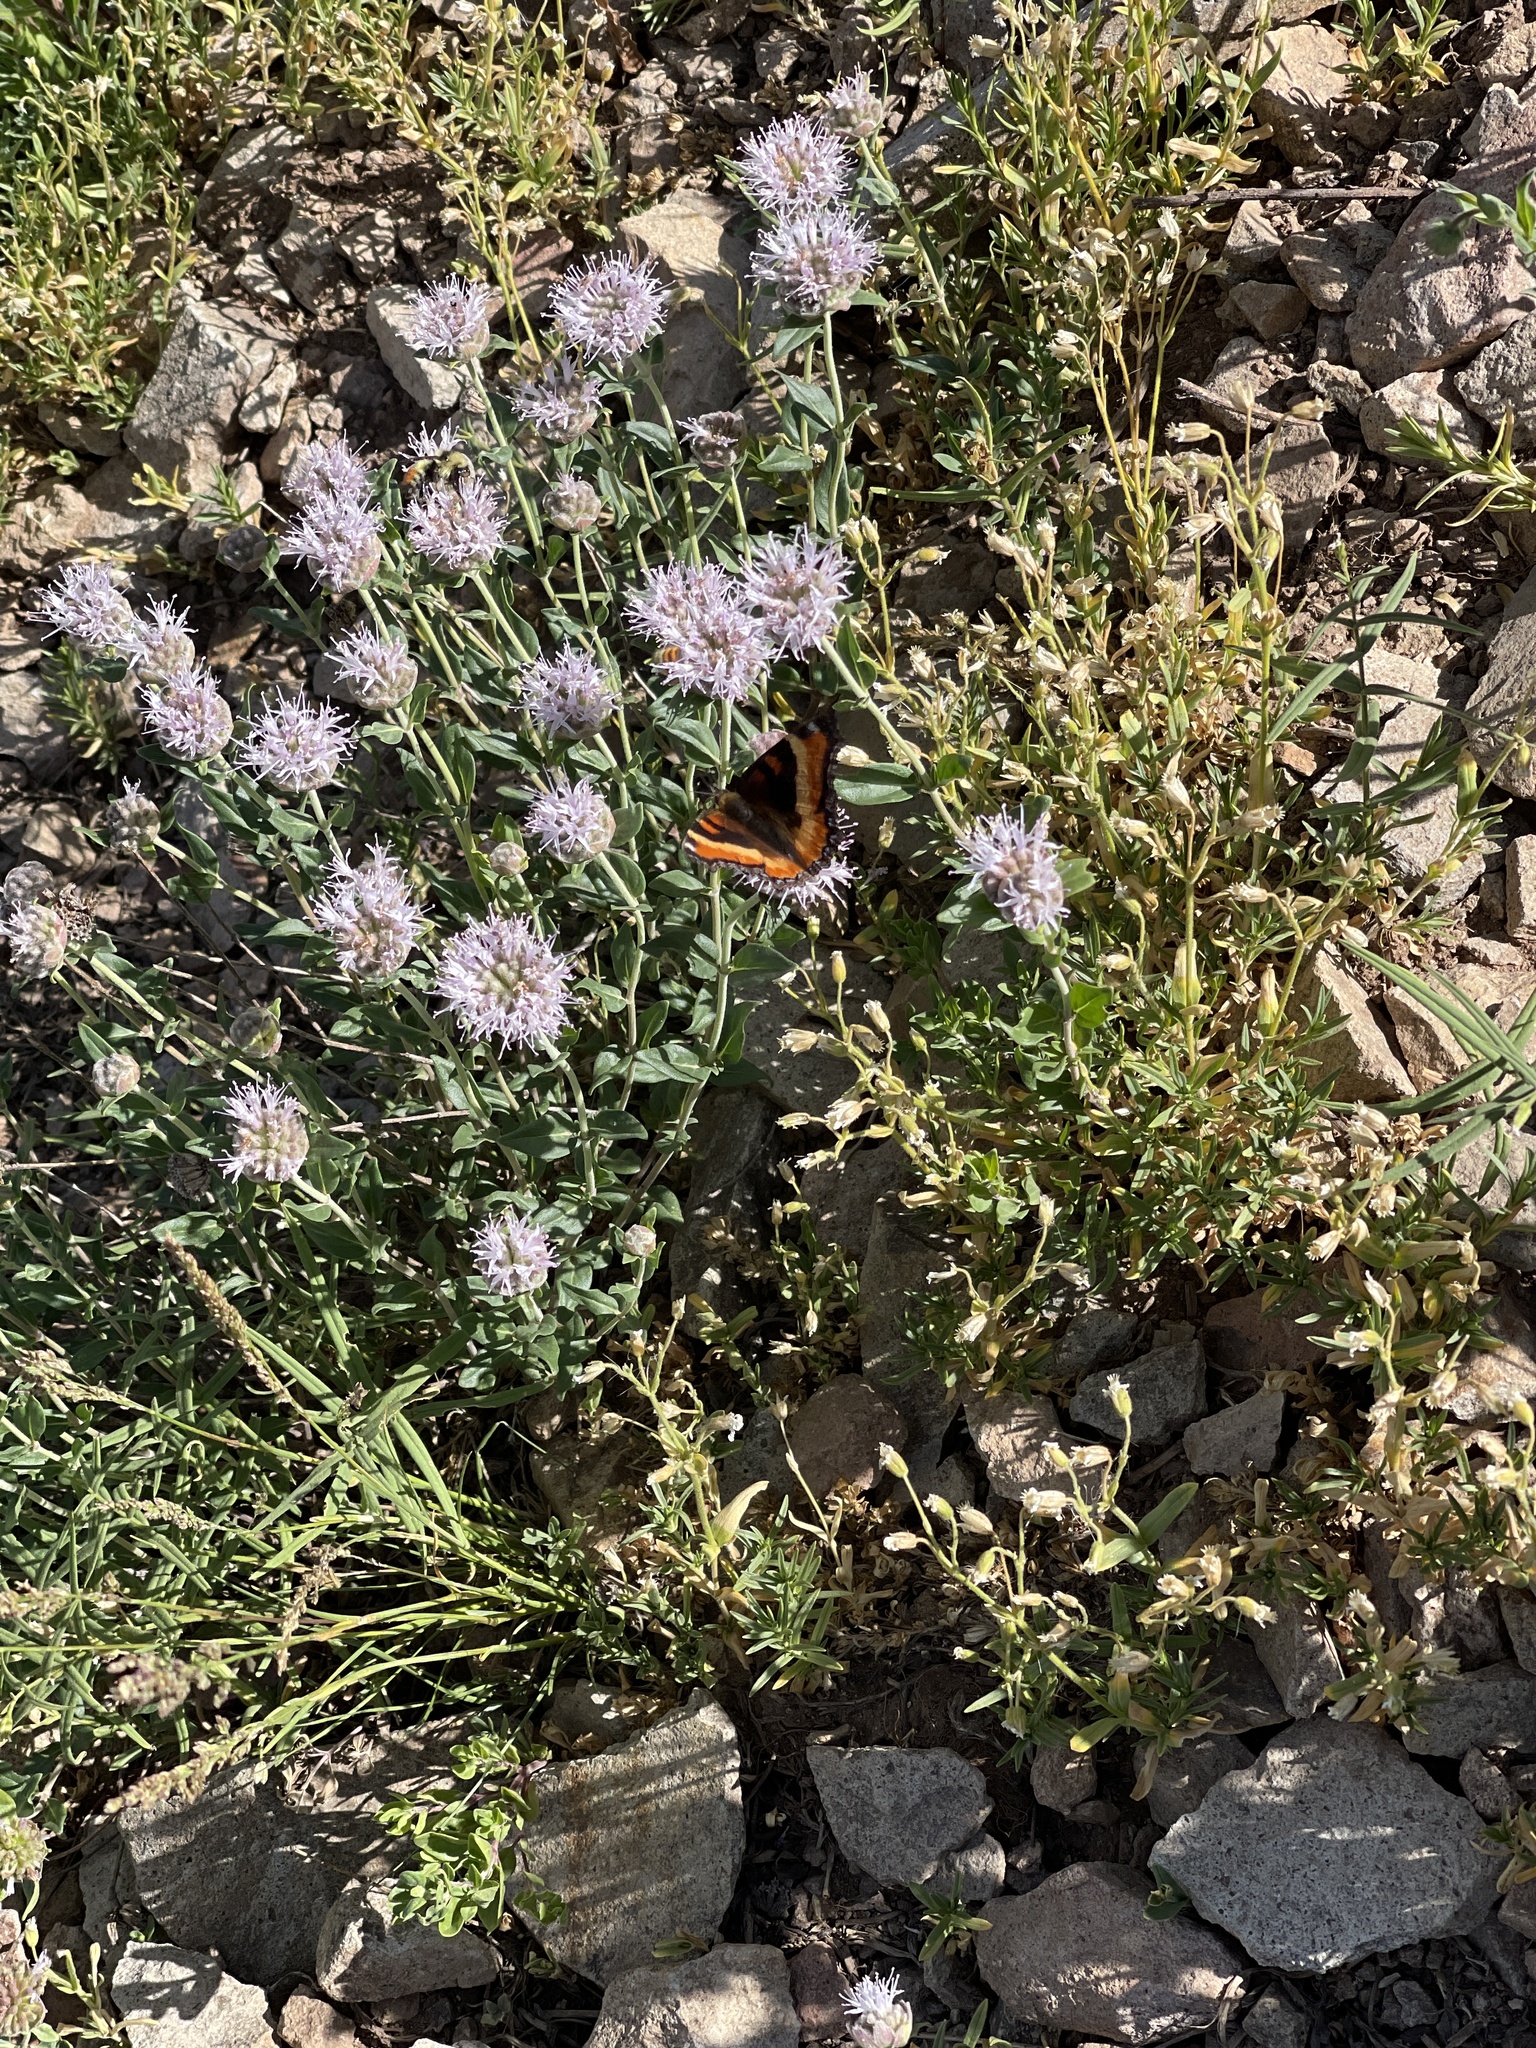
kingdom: Animalia
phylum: Arthropoda
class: Insecta
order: Lepidoptera
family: Nymphalidae
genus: Aglais
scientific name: Aglais milberti
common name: Milbert's tortoiseshell
